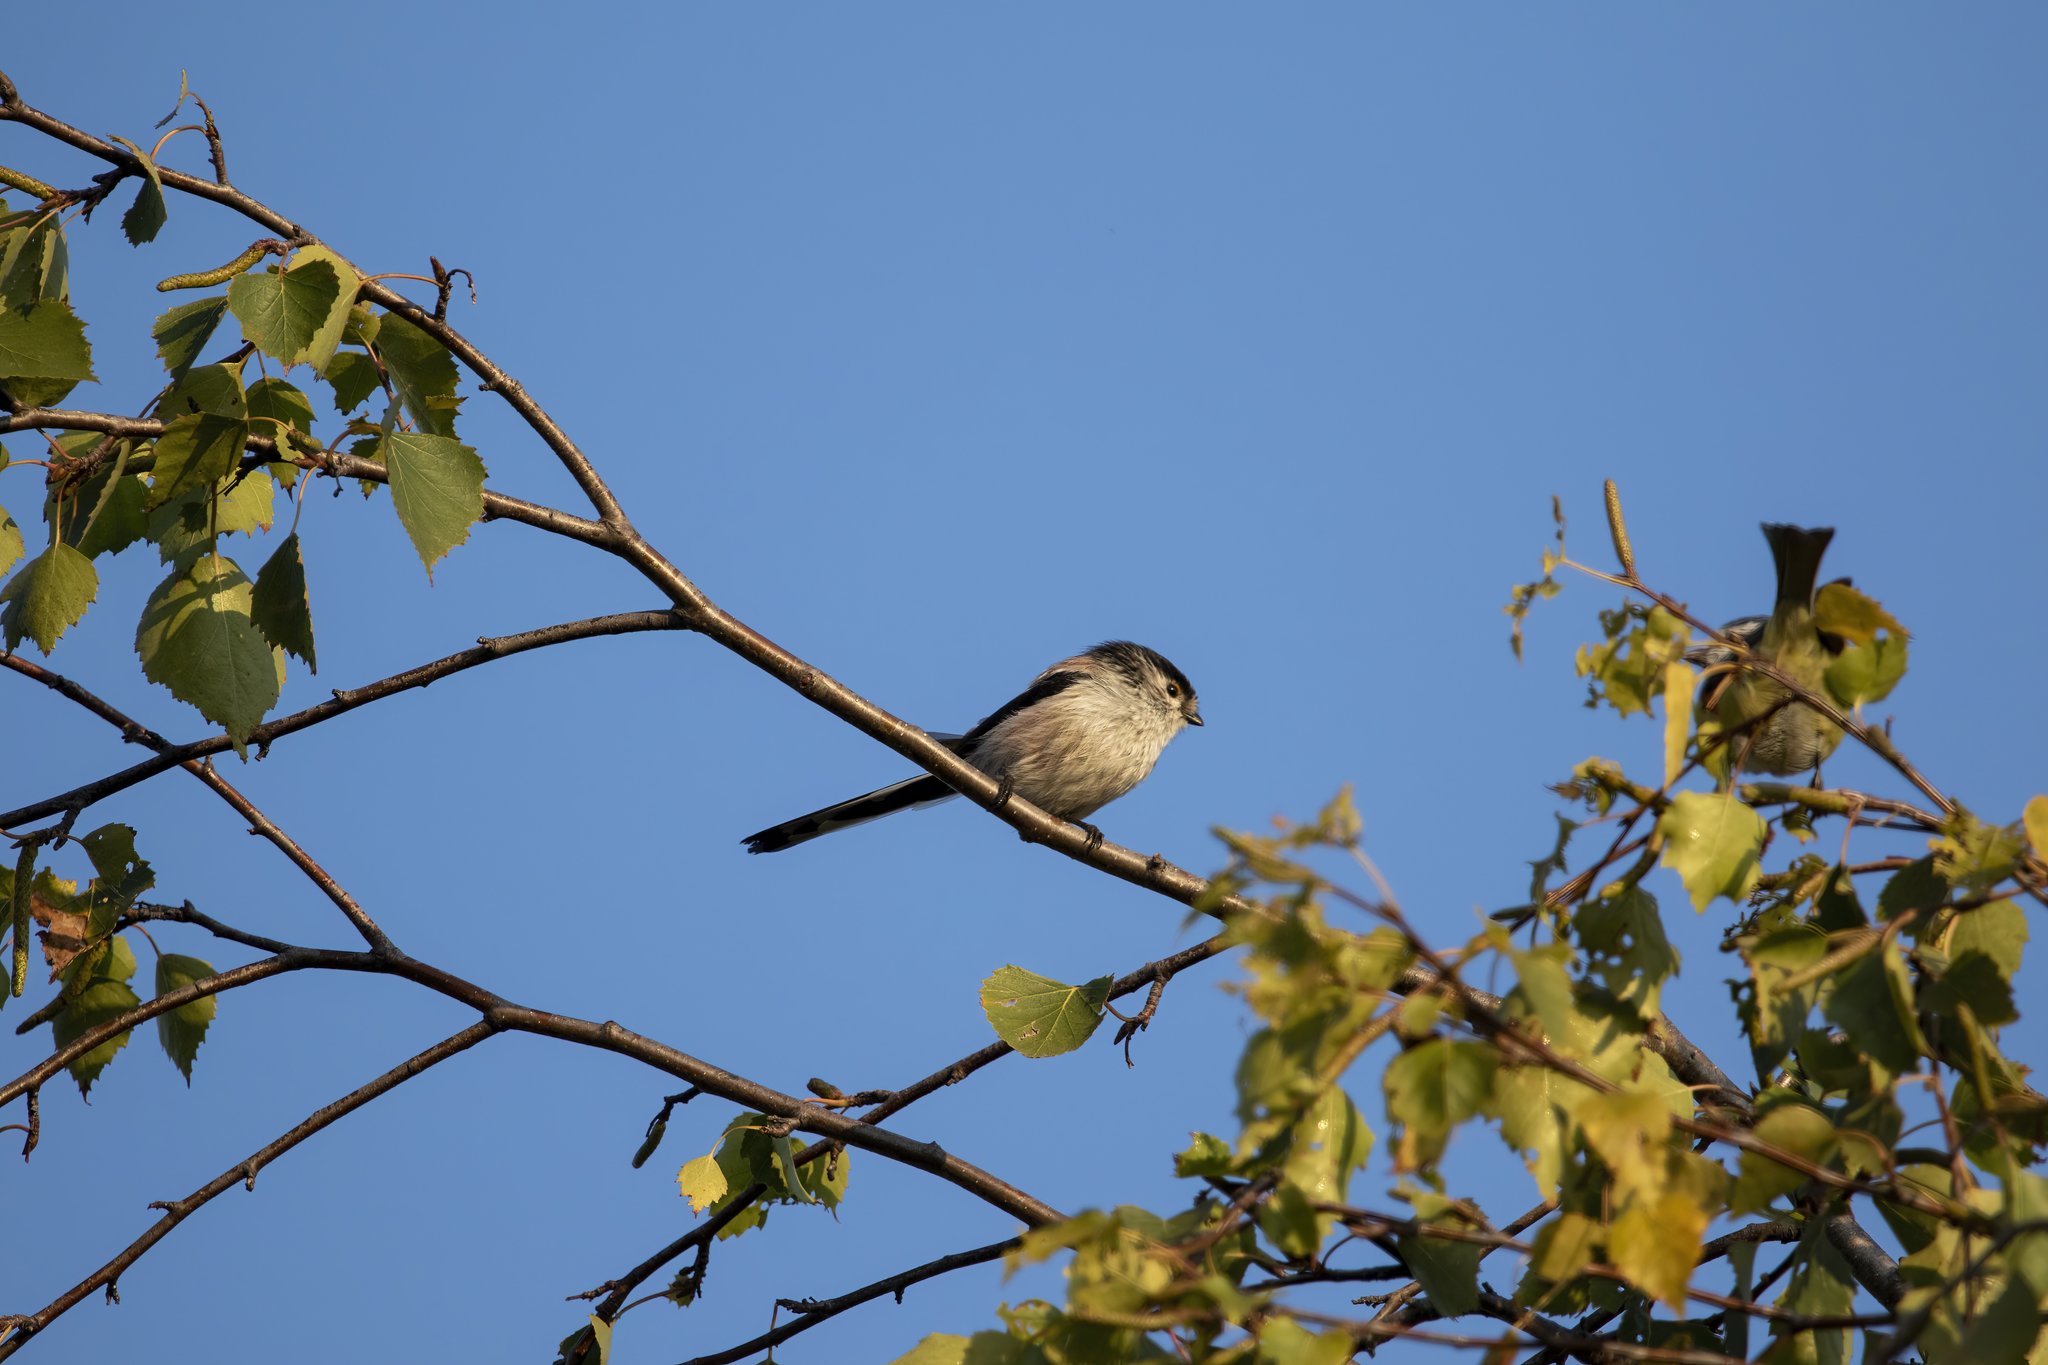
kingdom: Animalia
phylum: Chordata
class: Aves
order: Passeriformes
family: Aegithalidae
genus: Aegithalos
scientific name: Aegithalos caudatus
